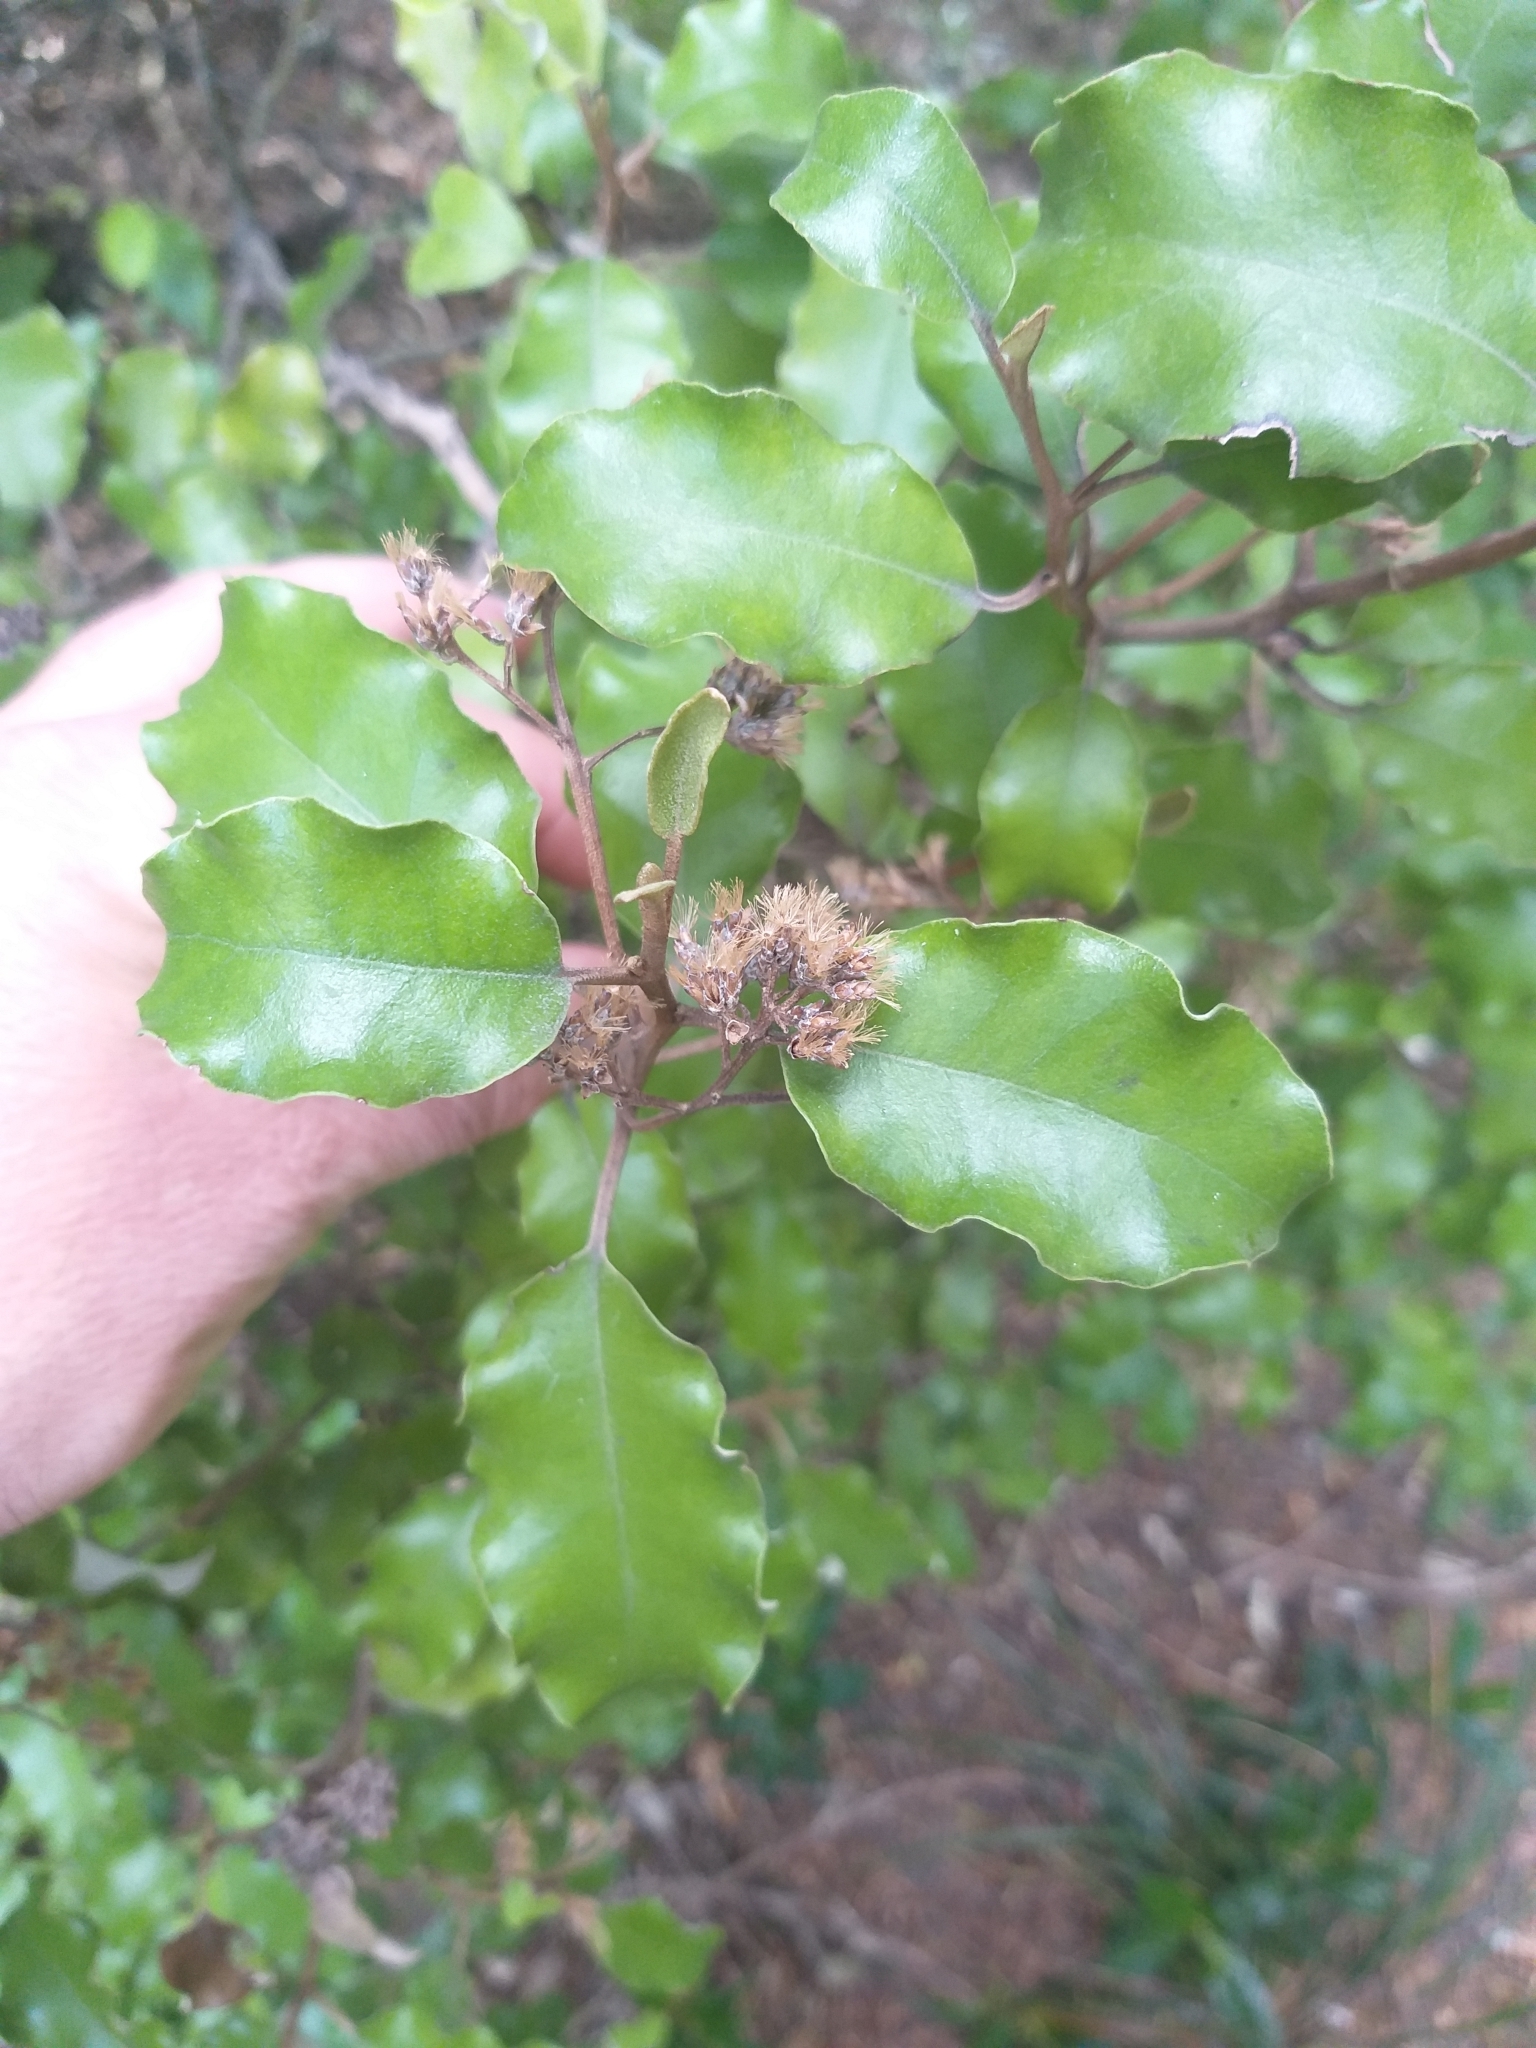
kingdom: Plantae
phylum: Tracheophyta
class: Magnoliopsida
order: Asterales
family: Asteraceae
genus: Olearia
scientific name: Olearia paniculata
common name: Akiraho
